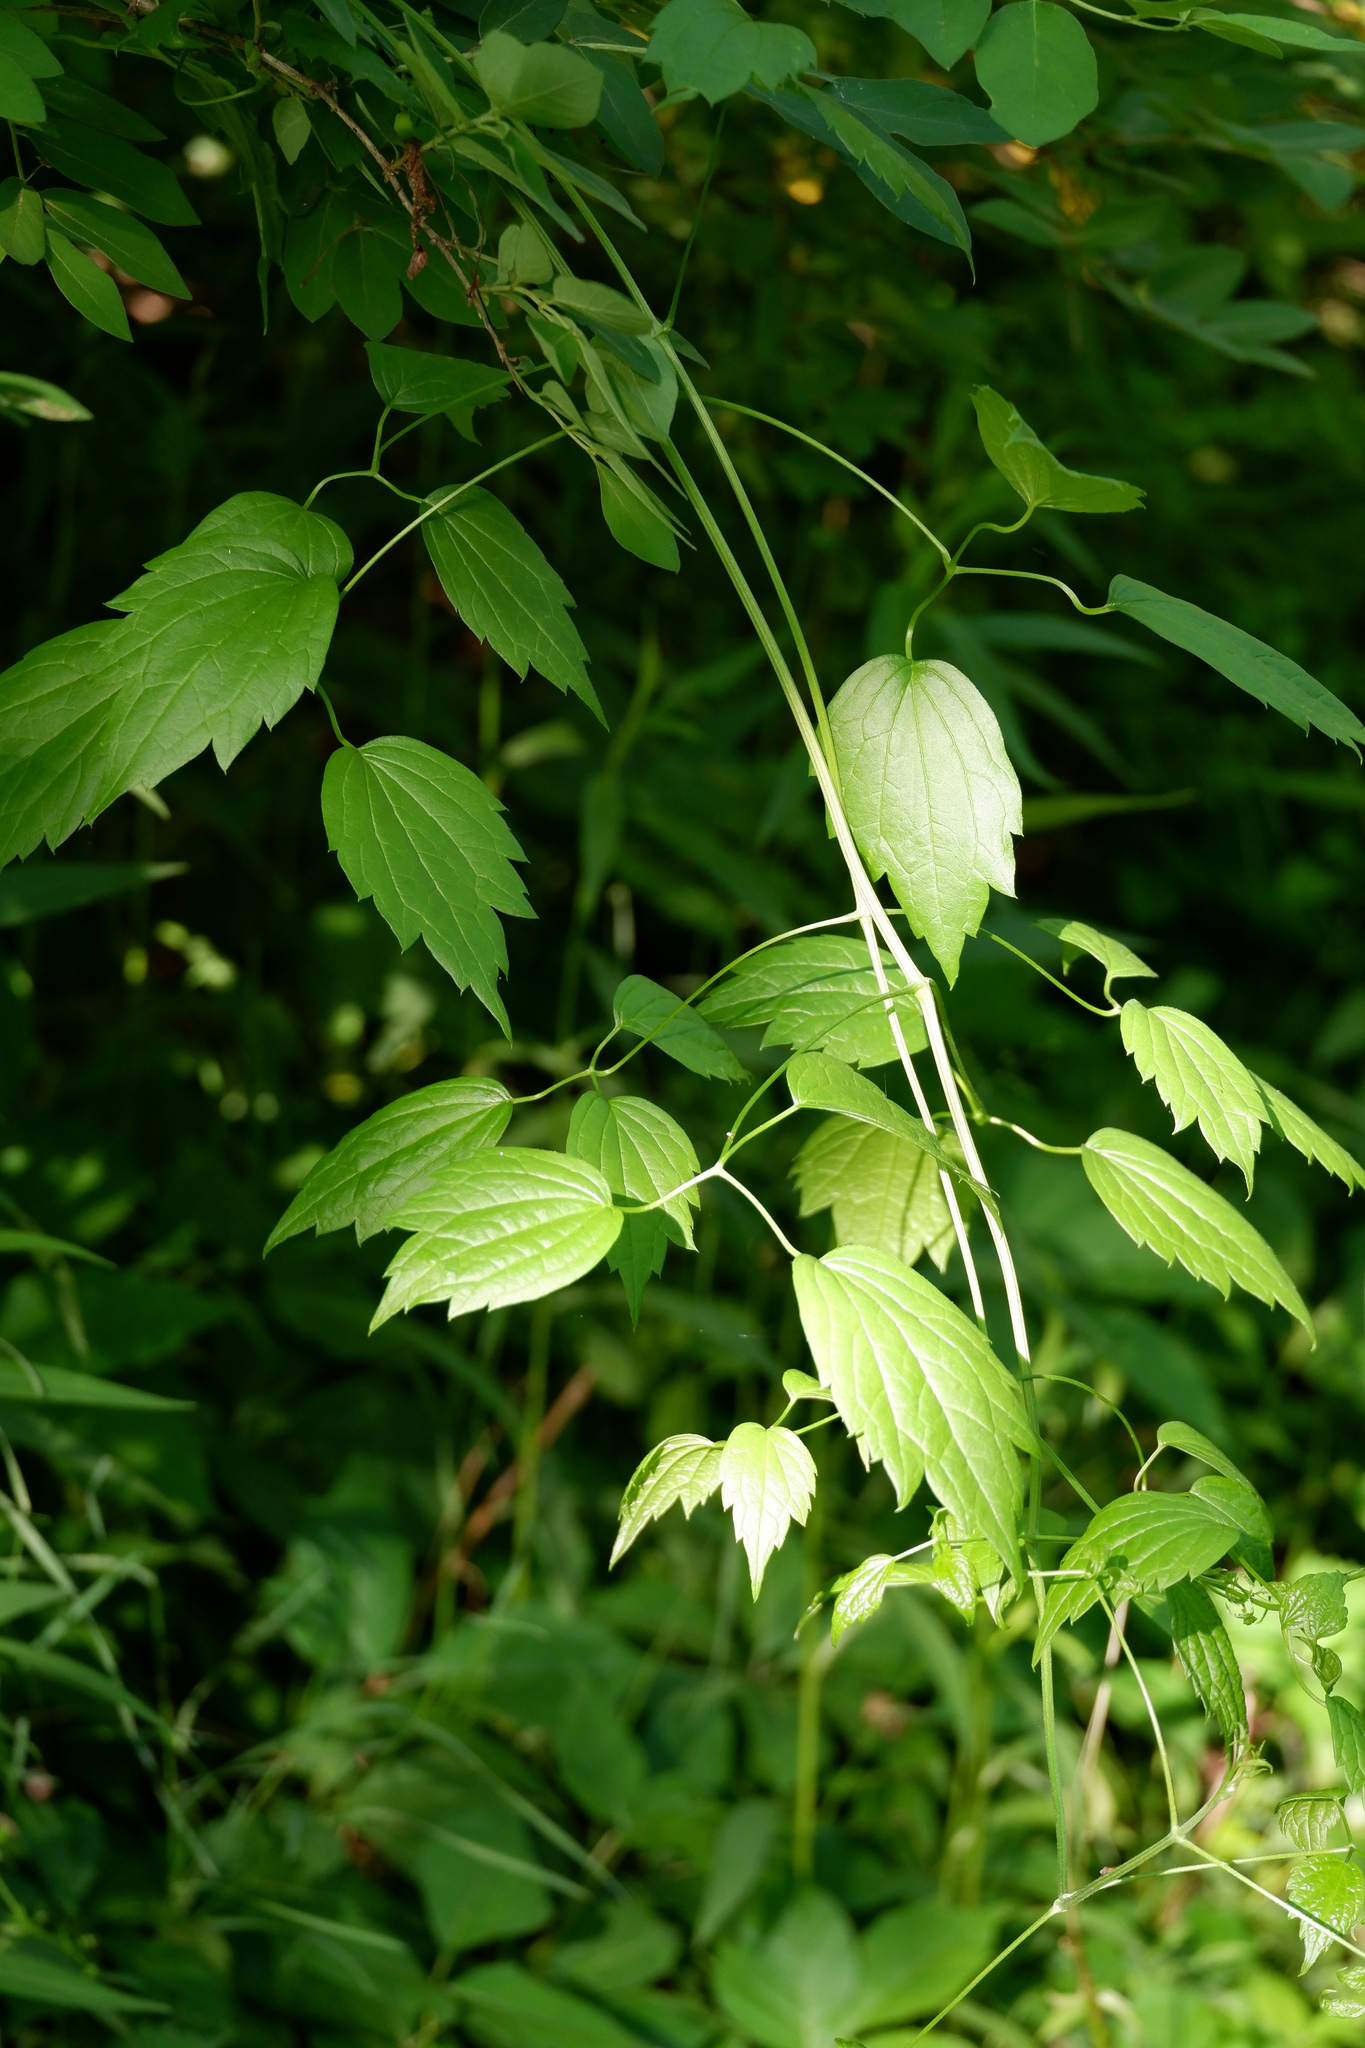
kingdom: Plantae
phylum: Tracheophyta
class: Magnoliopsida
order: Ranunculales
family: Ranunculaceae
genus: Clematis
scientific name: Clematis virginiana
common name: Virgin's-bower
